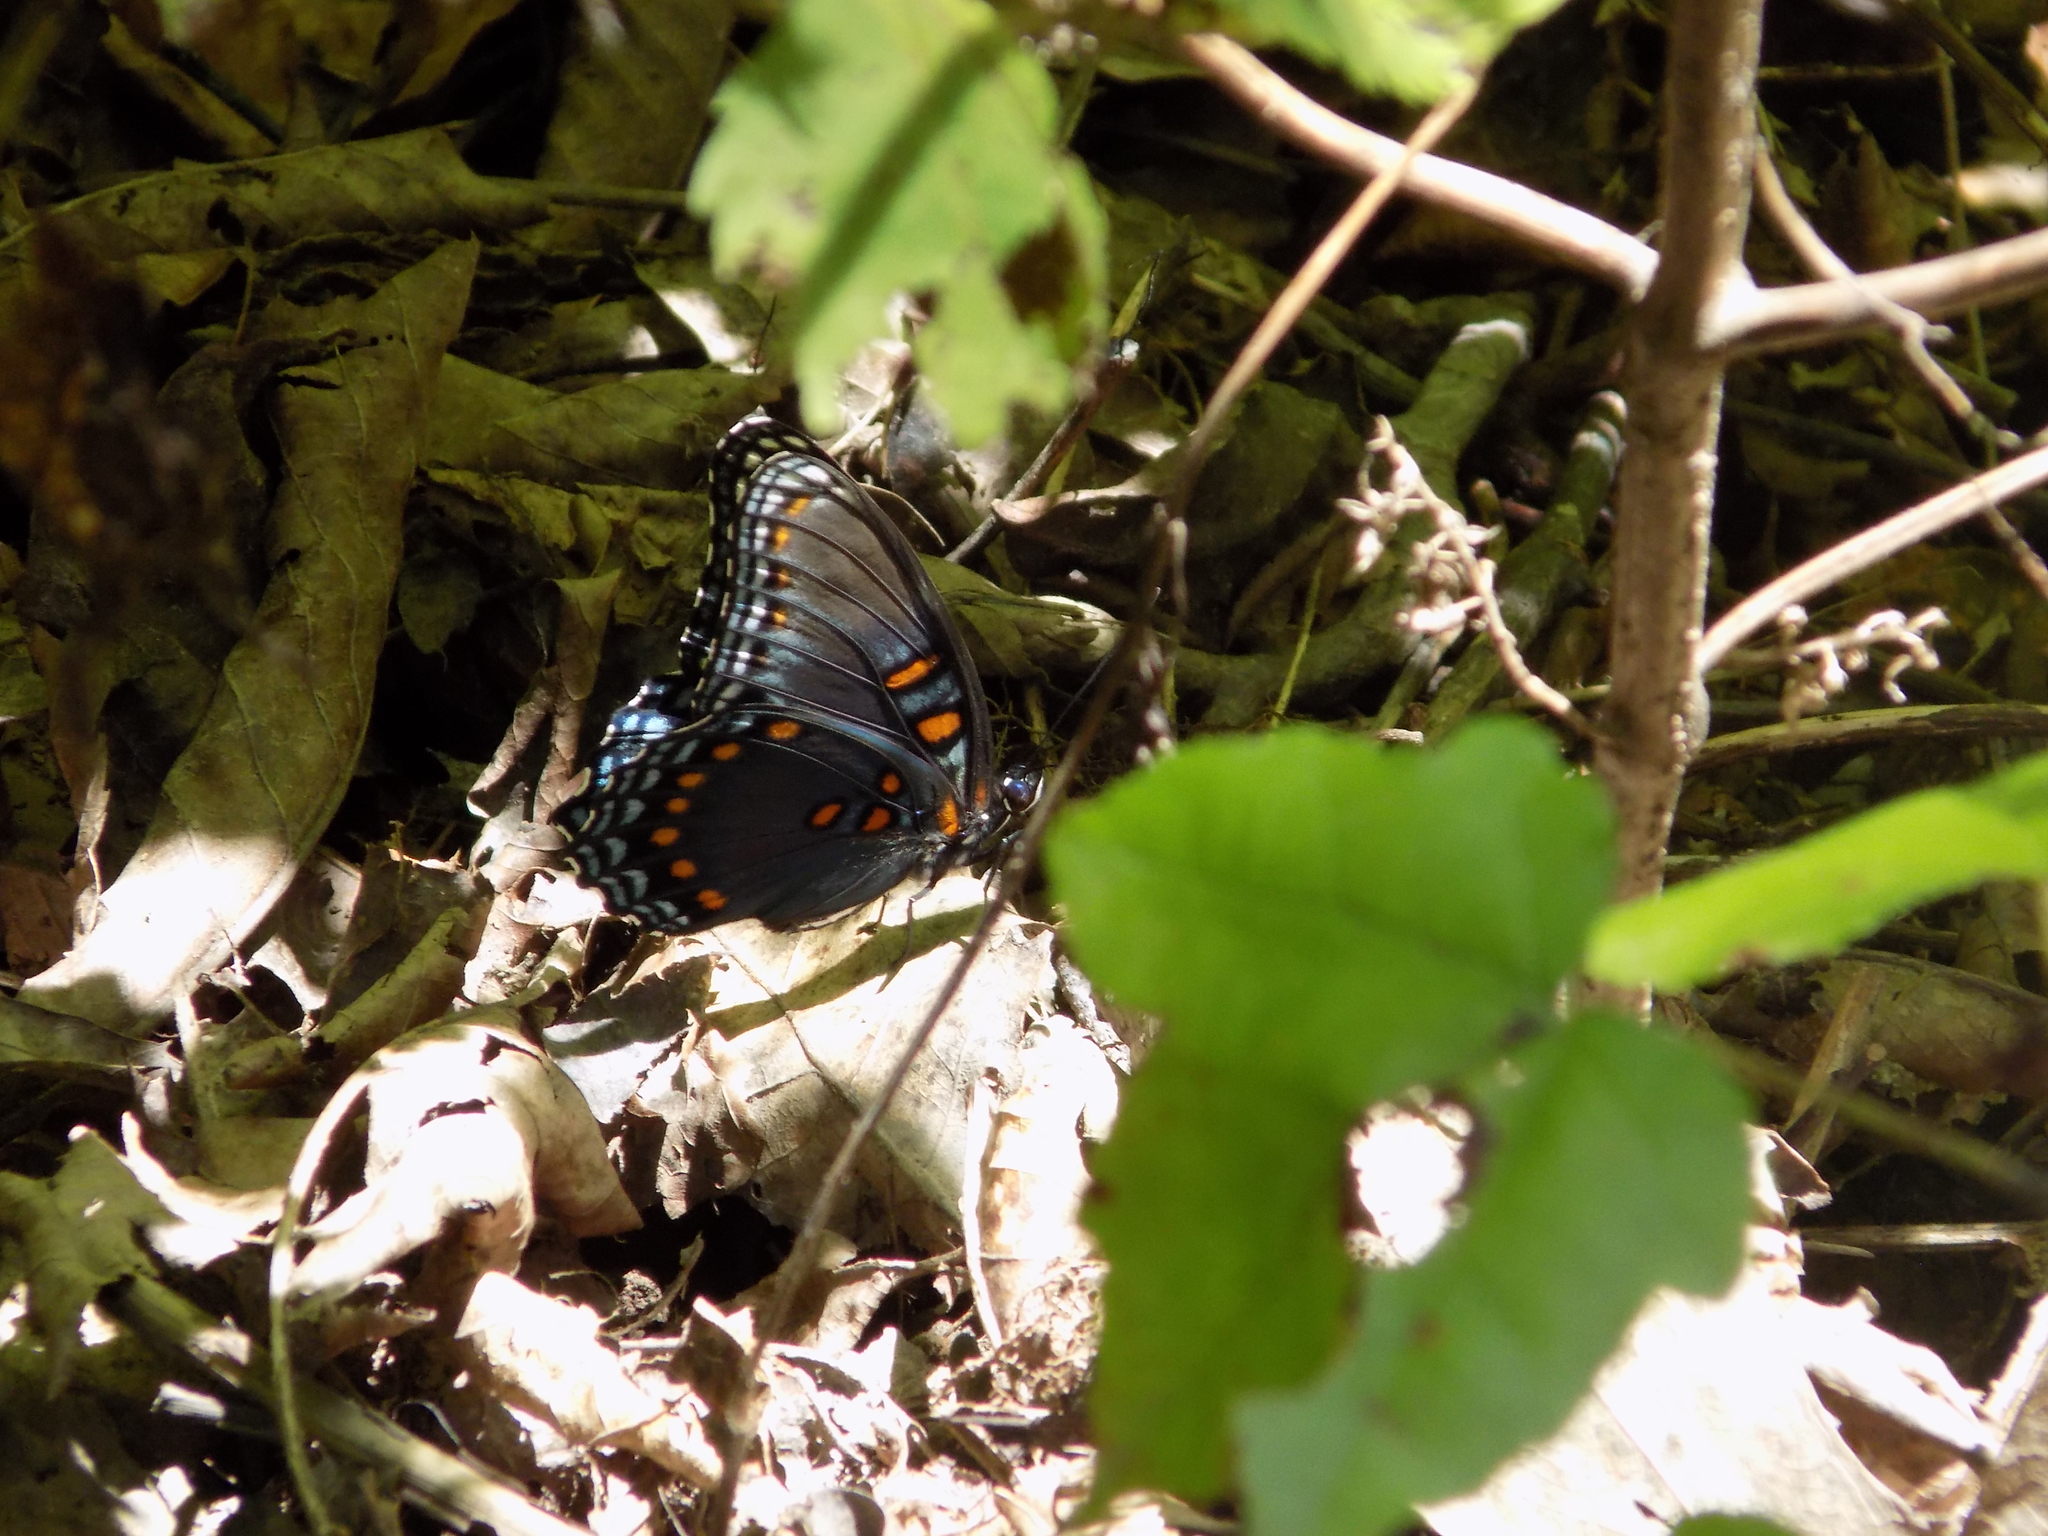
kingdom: Animalia
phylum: Arthropoda
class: Insecta
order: Lepidoptera
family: Nymphalidae
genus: Limenitis
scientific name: Limenitis arthemis
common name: Red-spotted admiral
